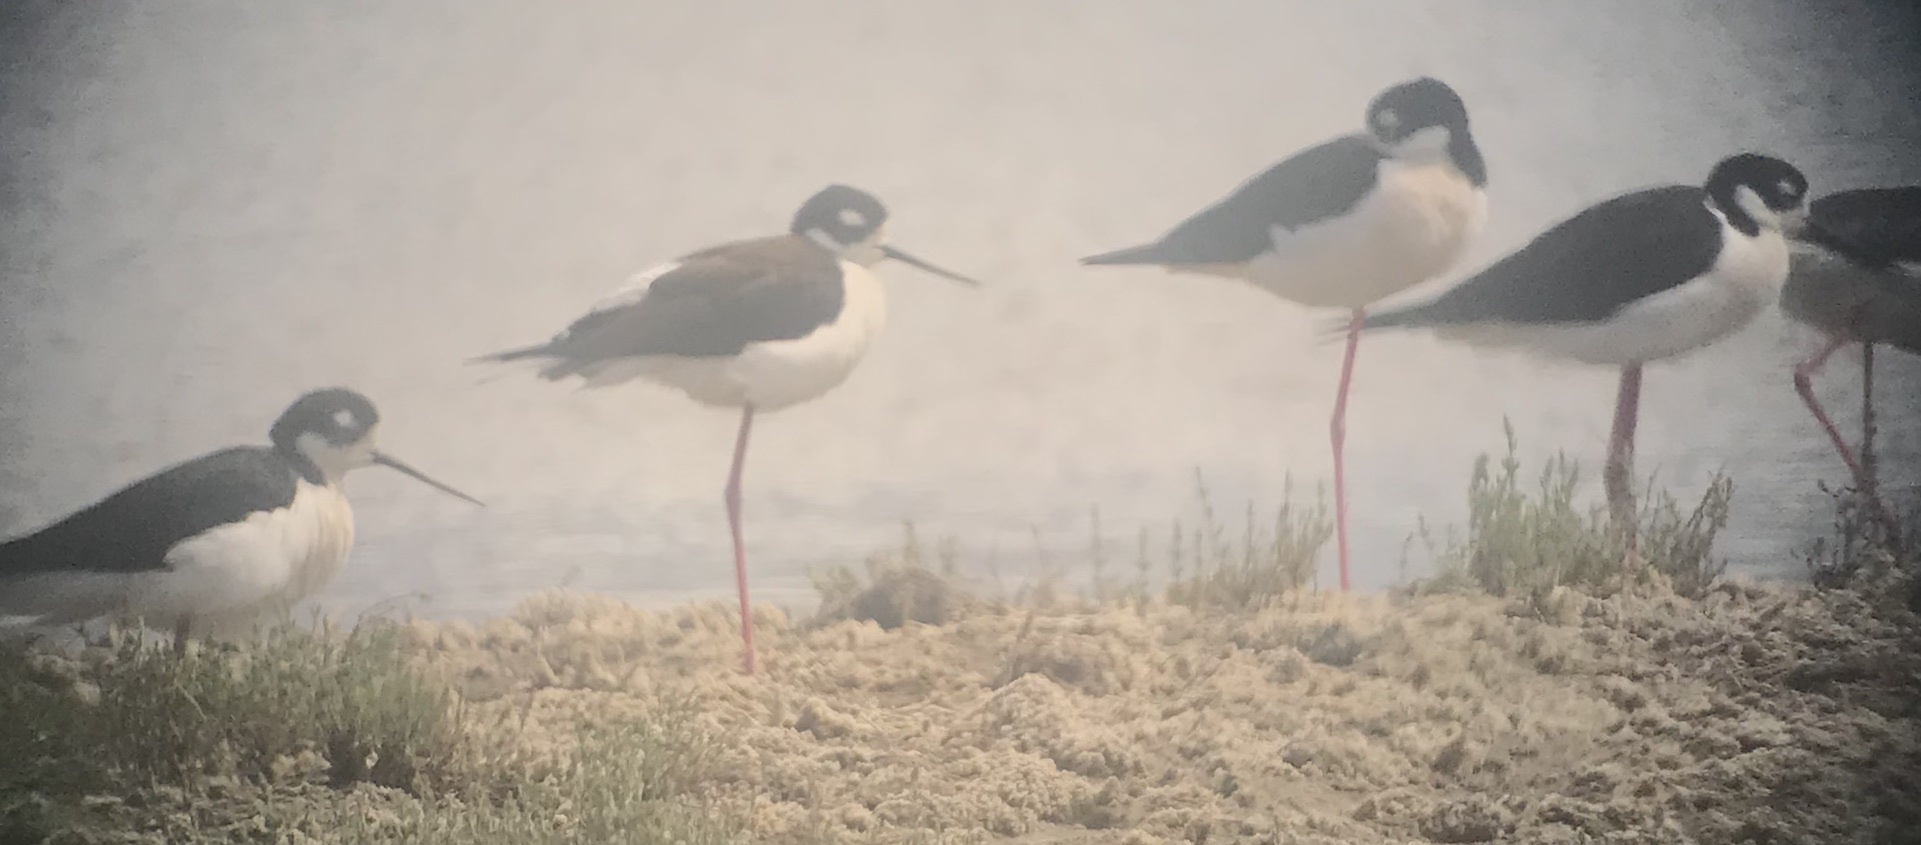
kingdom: Animalia
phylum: Chordata
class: Aves
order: Charadriiformes
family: Recurvirostridae
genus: Himantopus
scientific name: Himantopus mexicanus
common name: Black-necked stilt
